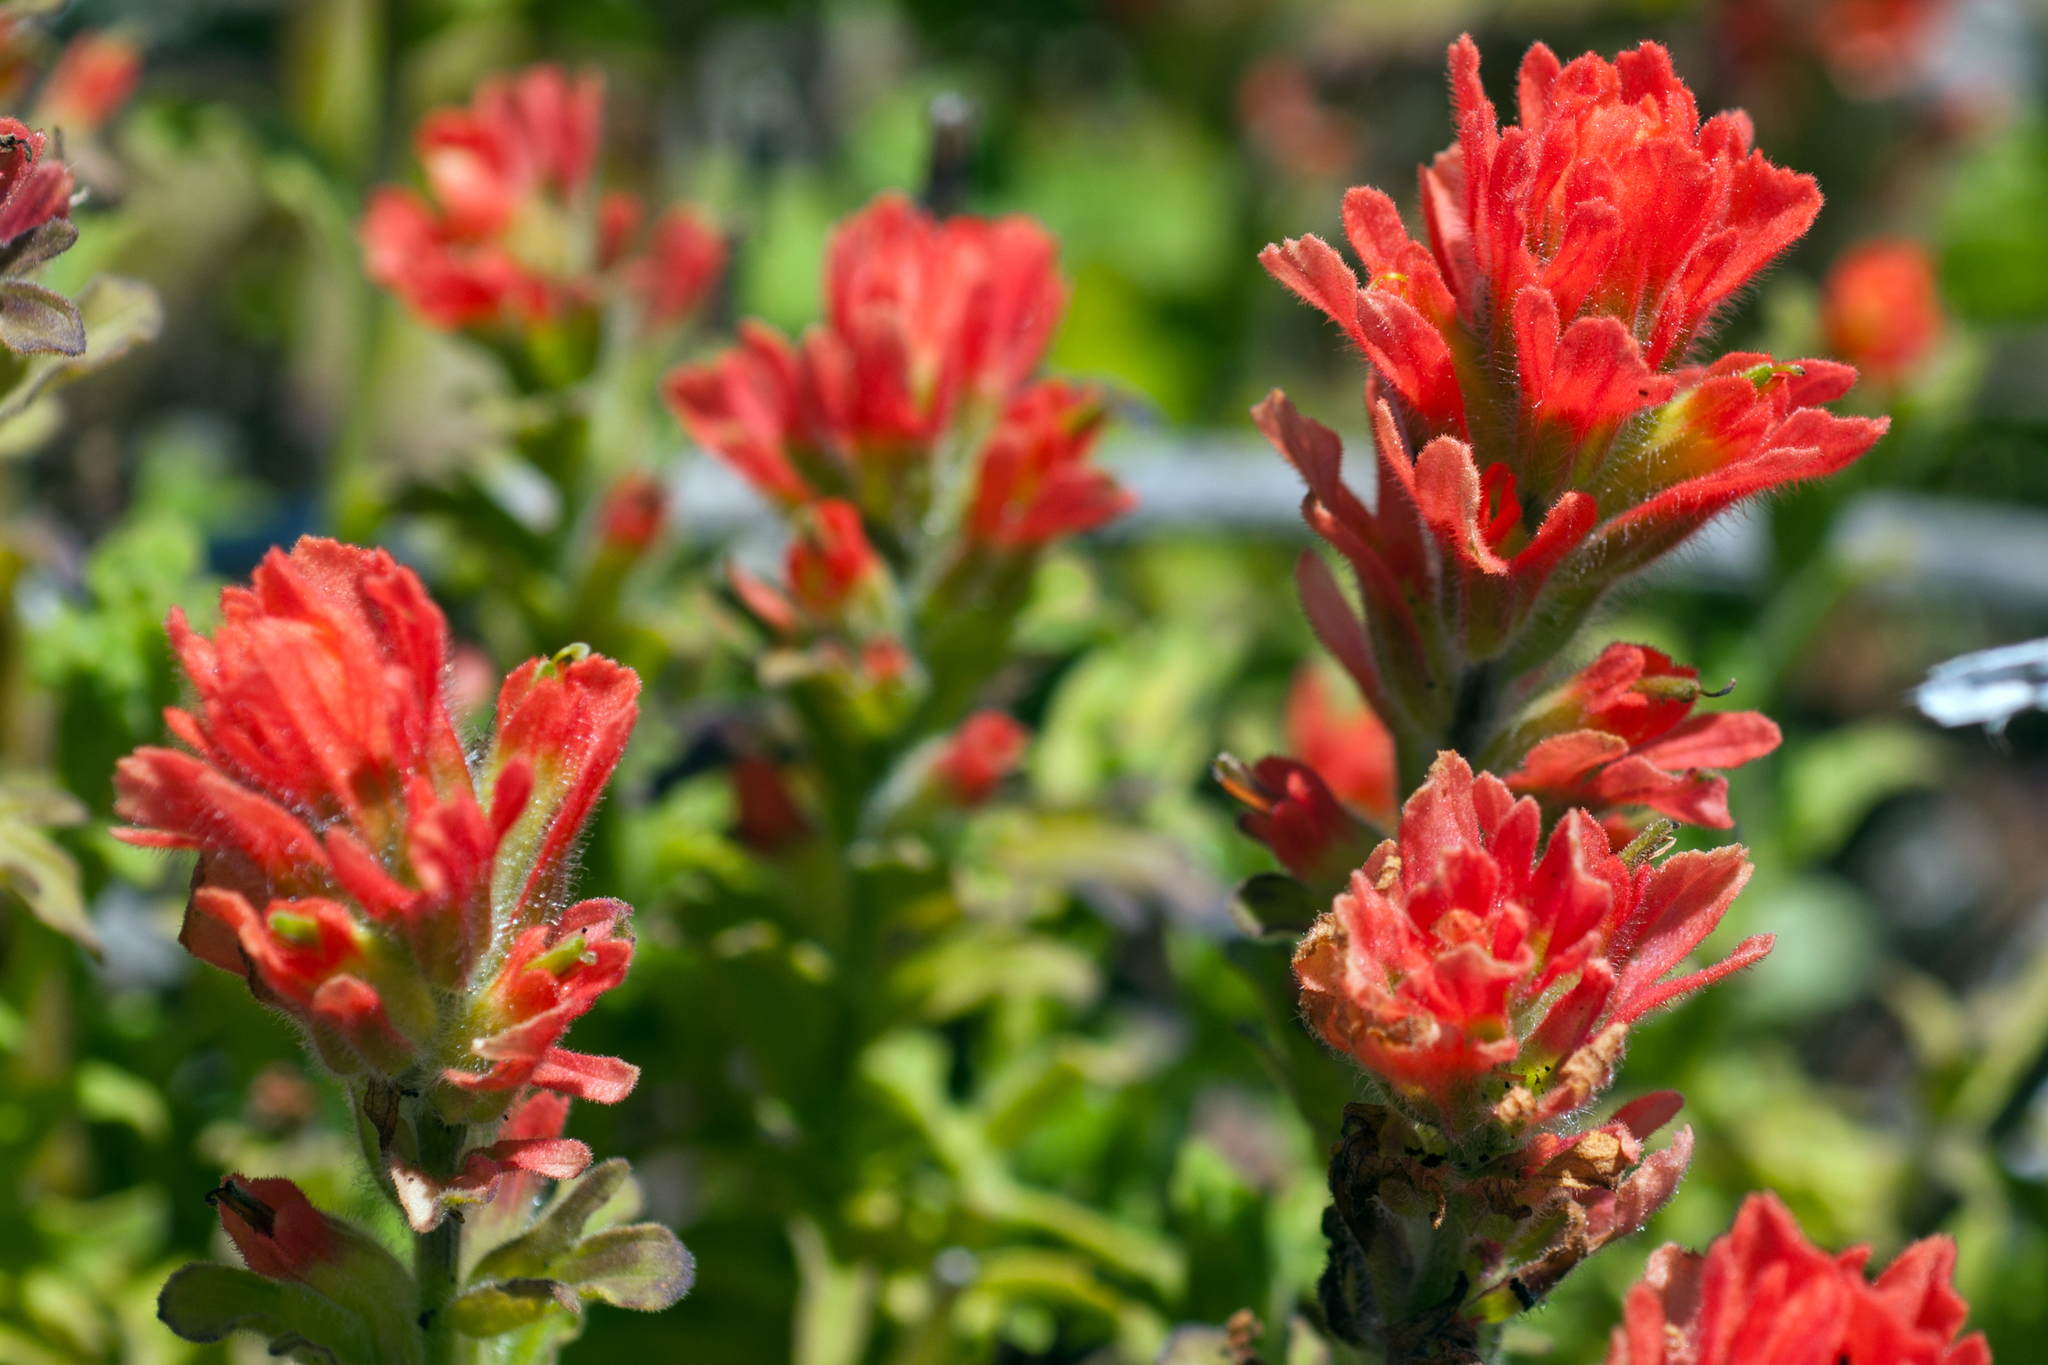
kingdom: Plantae
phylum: Tracheophyta
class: Magnoliopsida
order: Lamiales
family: Orobanchaceae
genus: Castilleja
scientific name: Castilleja wightii
